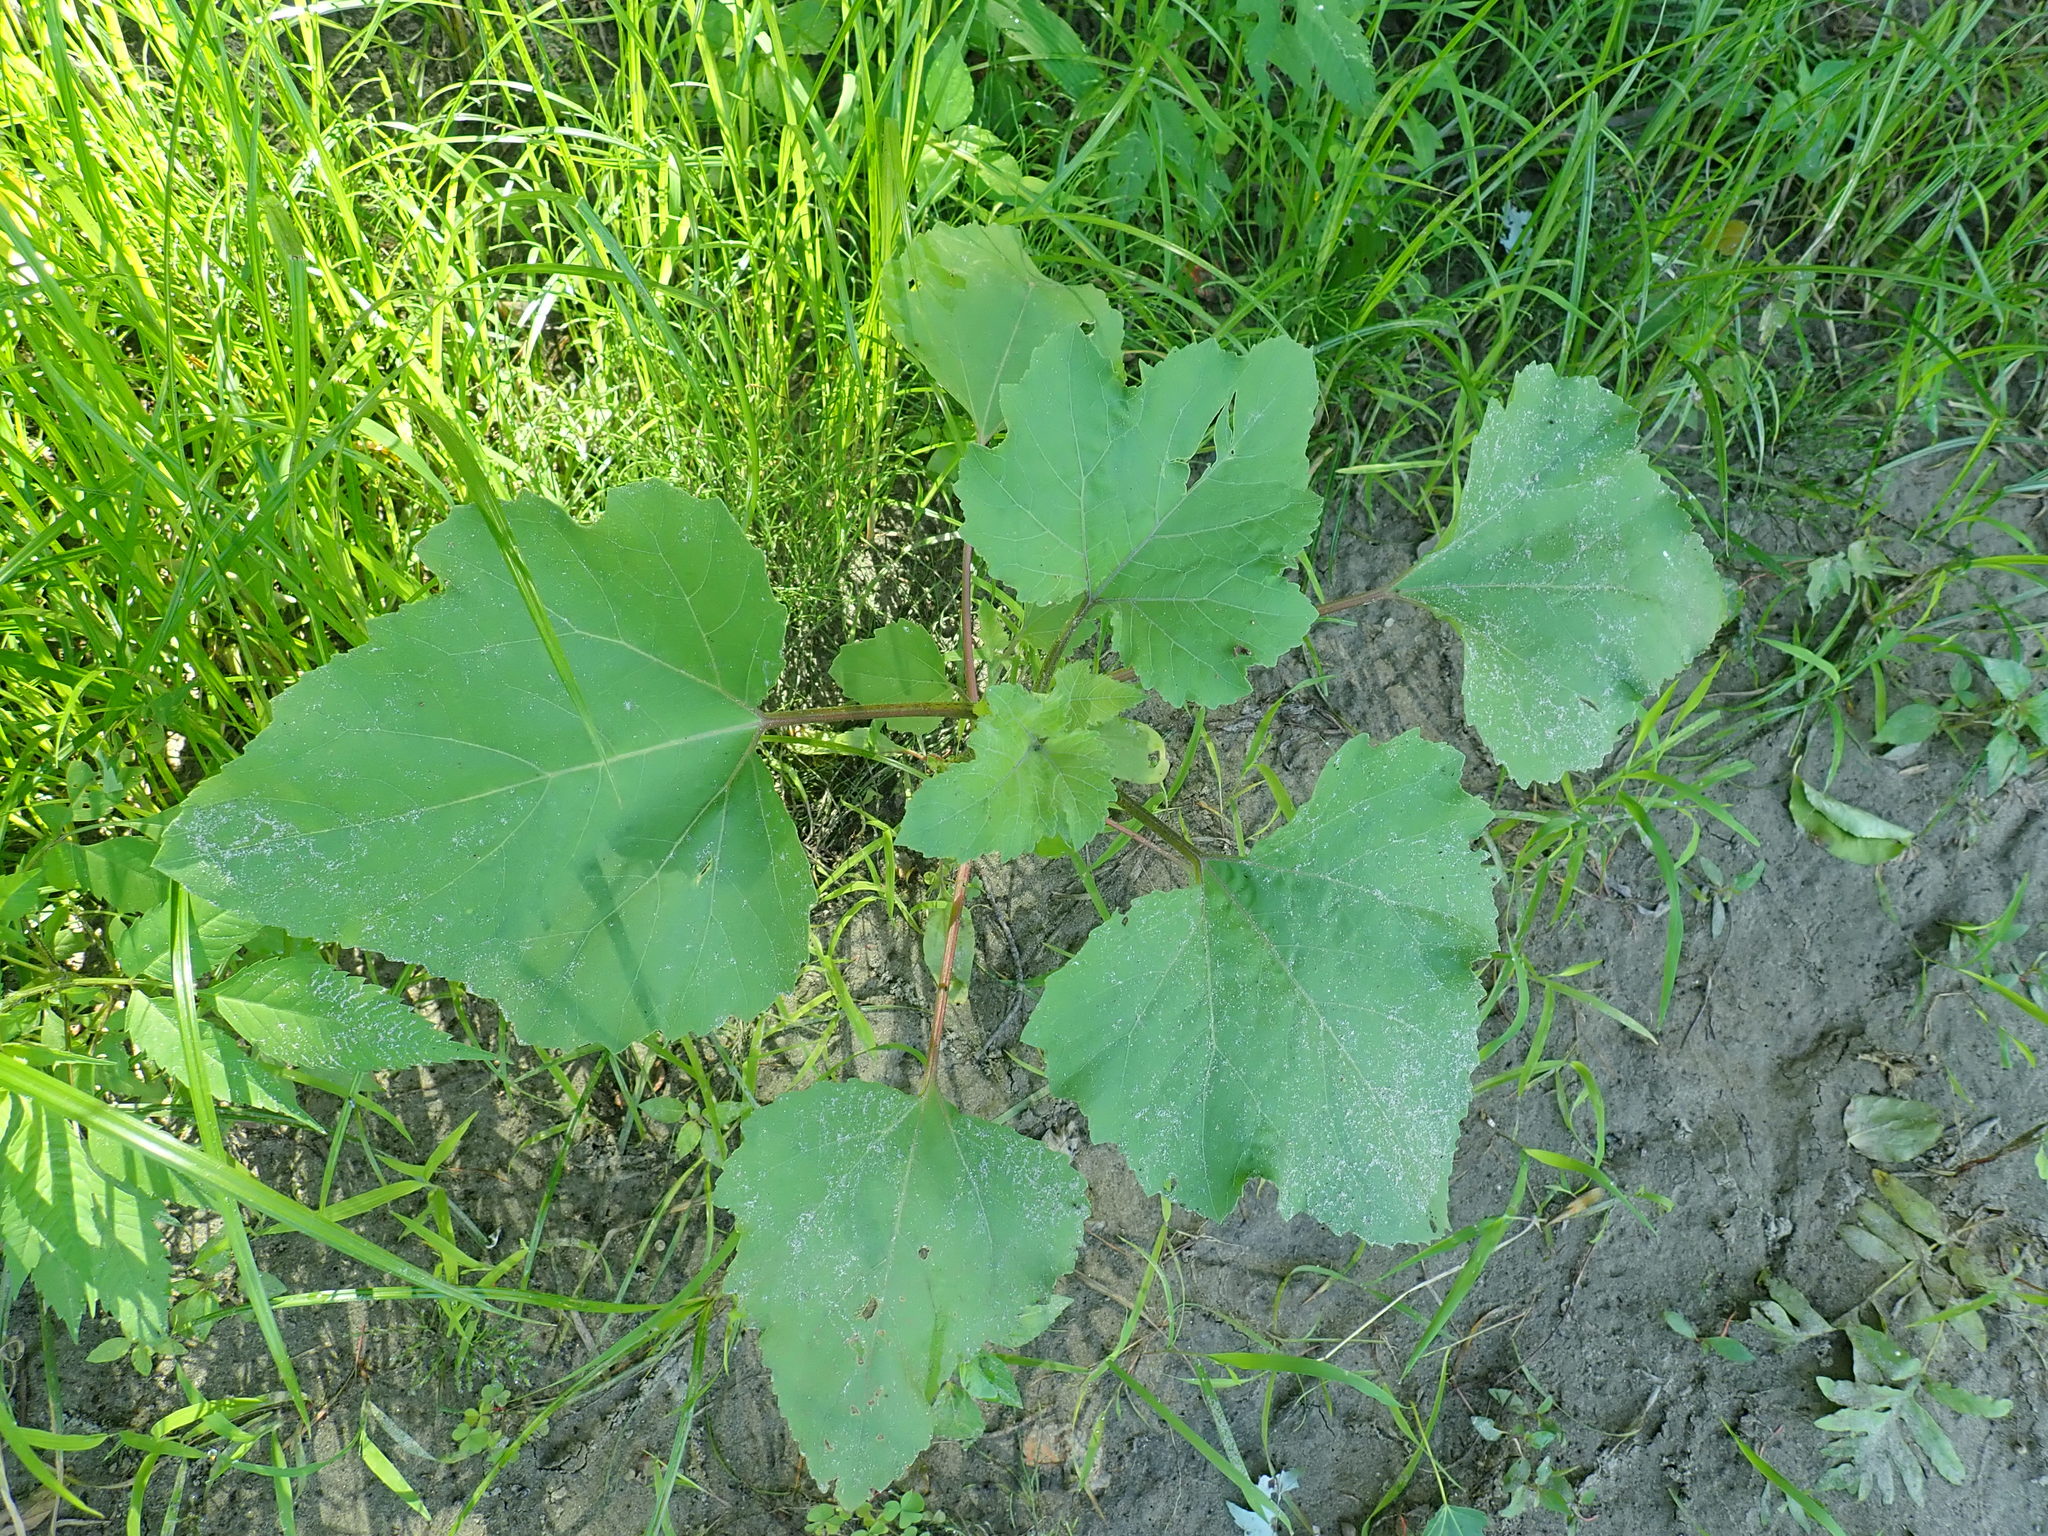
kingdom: Plantae
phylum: Tracheophyta
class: Magnoliopsida
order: Asterales
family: Asteraceae
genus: Xanthium
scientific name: Xanthium strumarium
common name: Rough cocklebur
